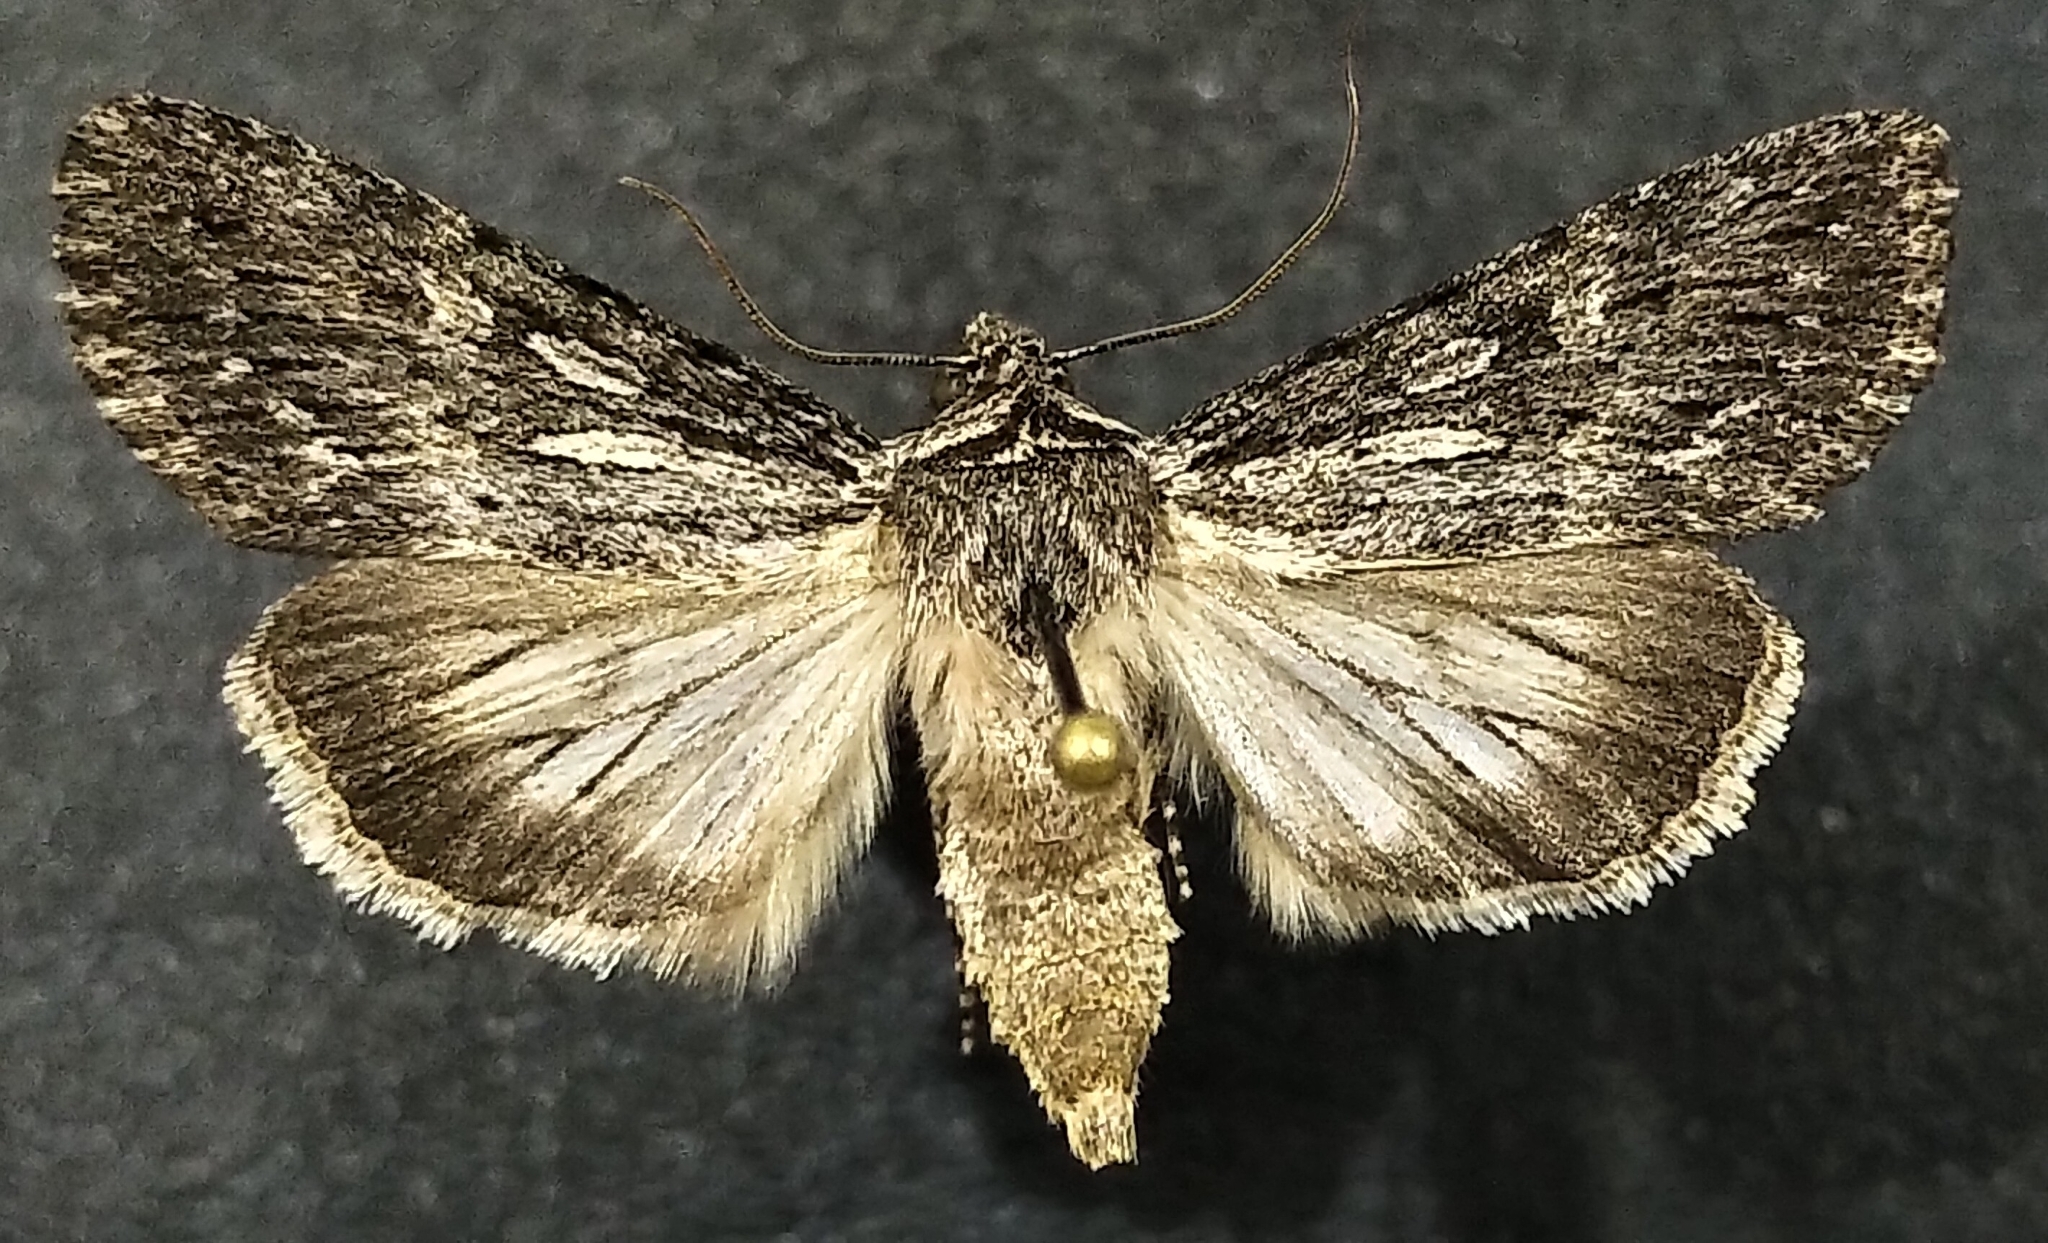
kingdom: Animalia
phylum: Arthropoda
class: Insecta
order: Lepidoptera
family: Noctuidae
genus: Sympistis
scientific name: Sympistis riparia
